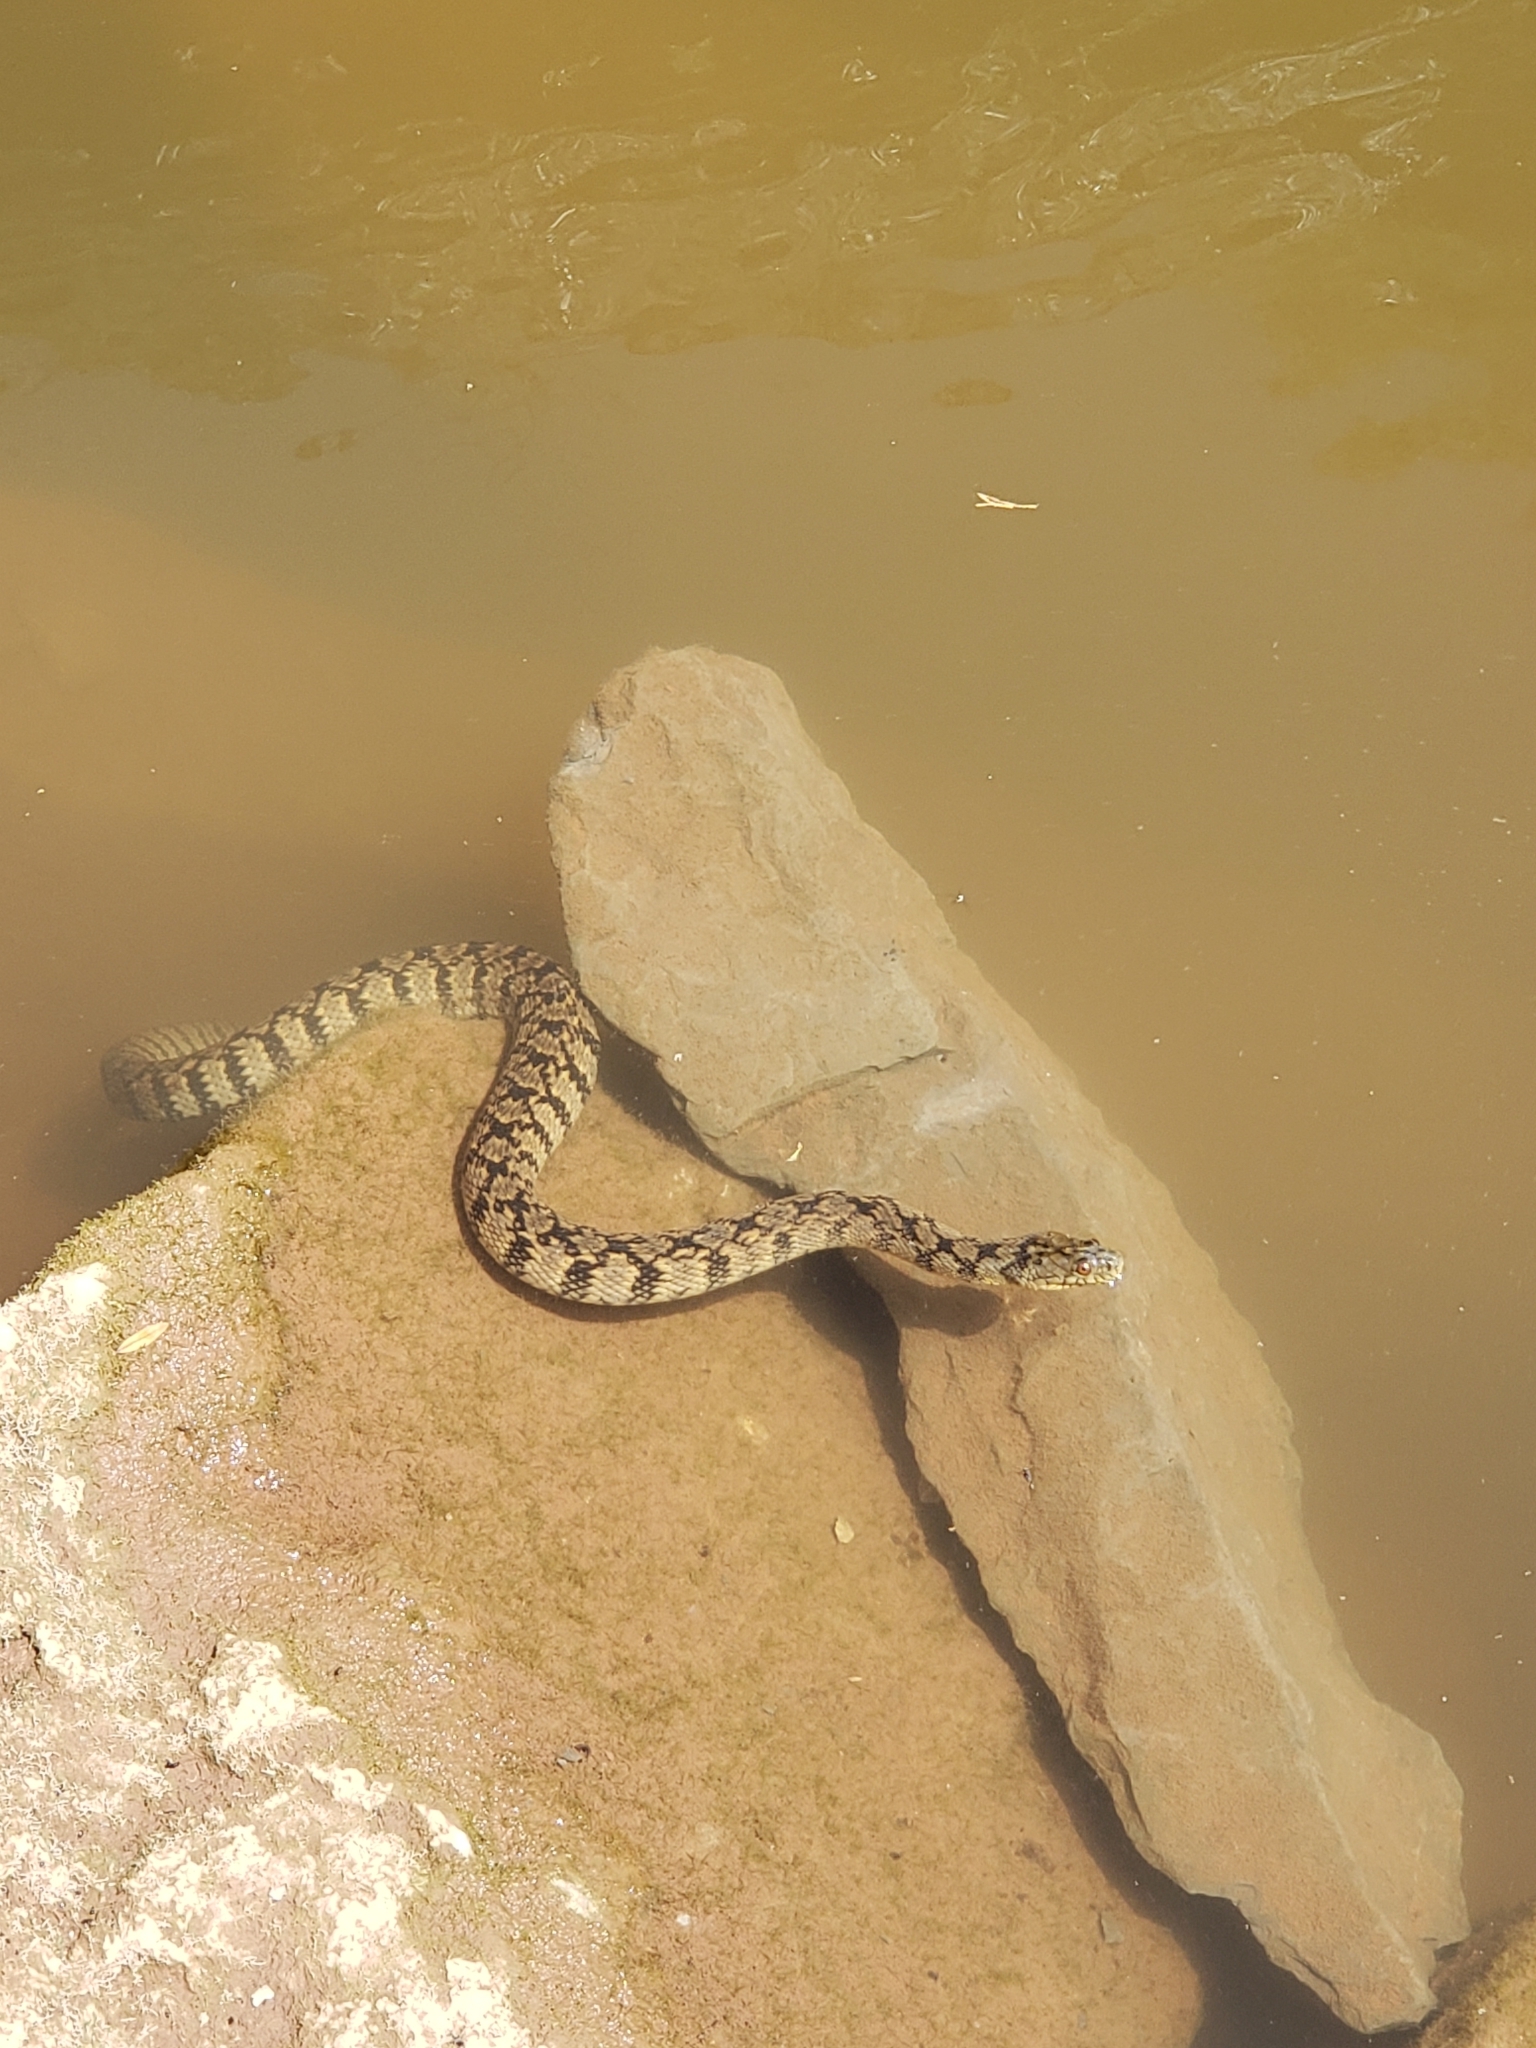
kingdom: Animalia
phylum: Chordata
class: Squamata
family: Colubridae
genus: Nerodia
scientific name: Nerodia rhombifer
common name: Diamondback water snake
